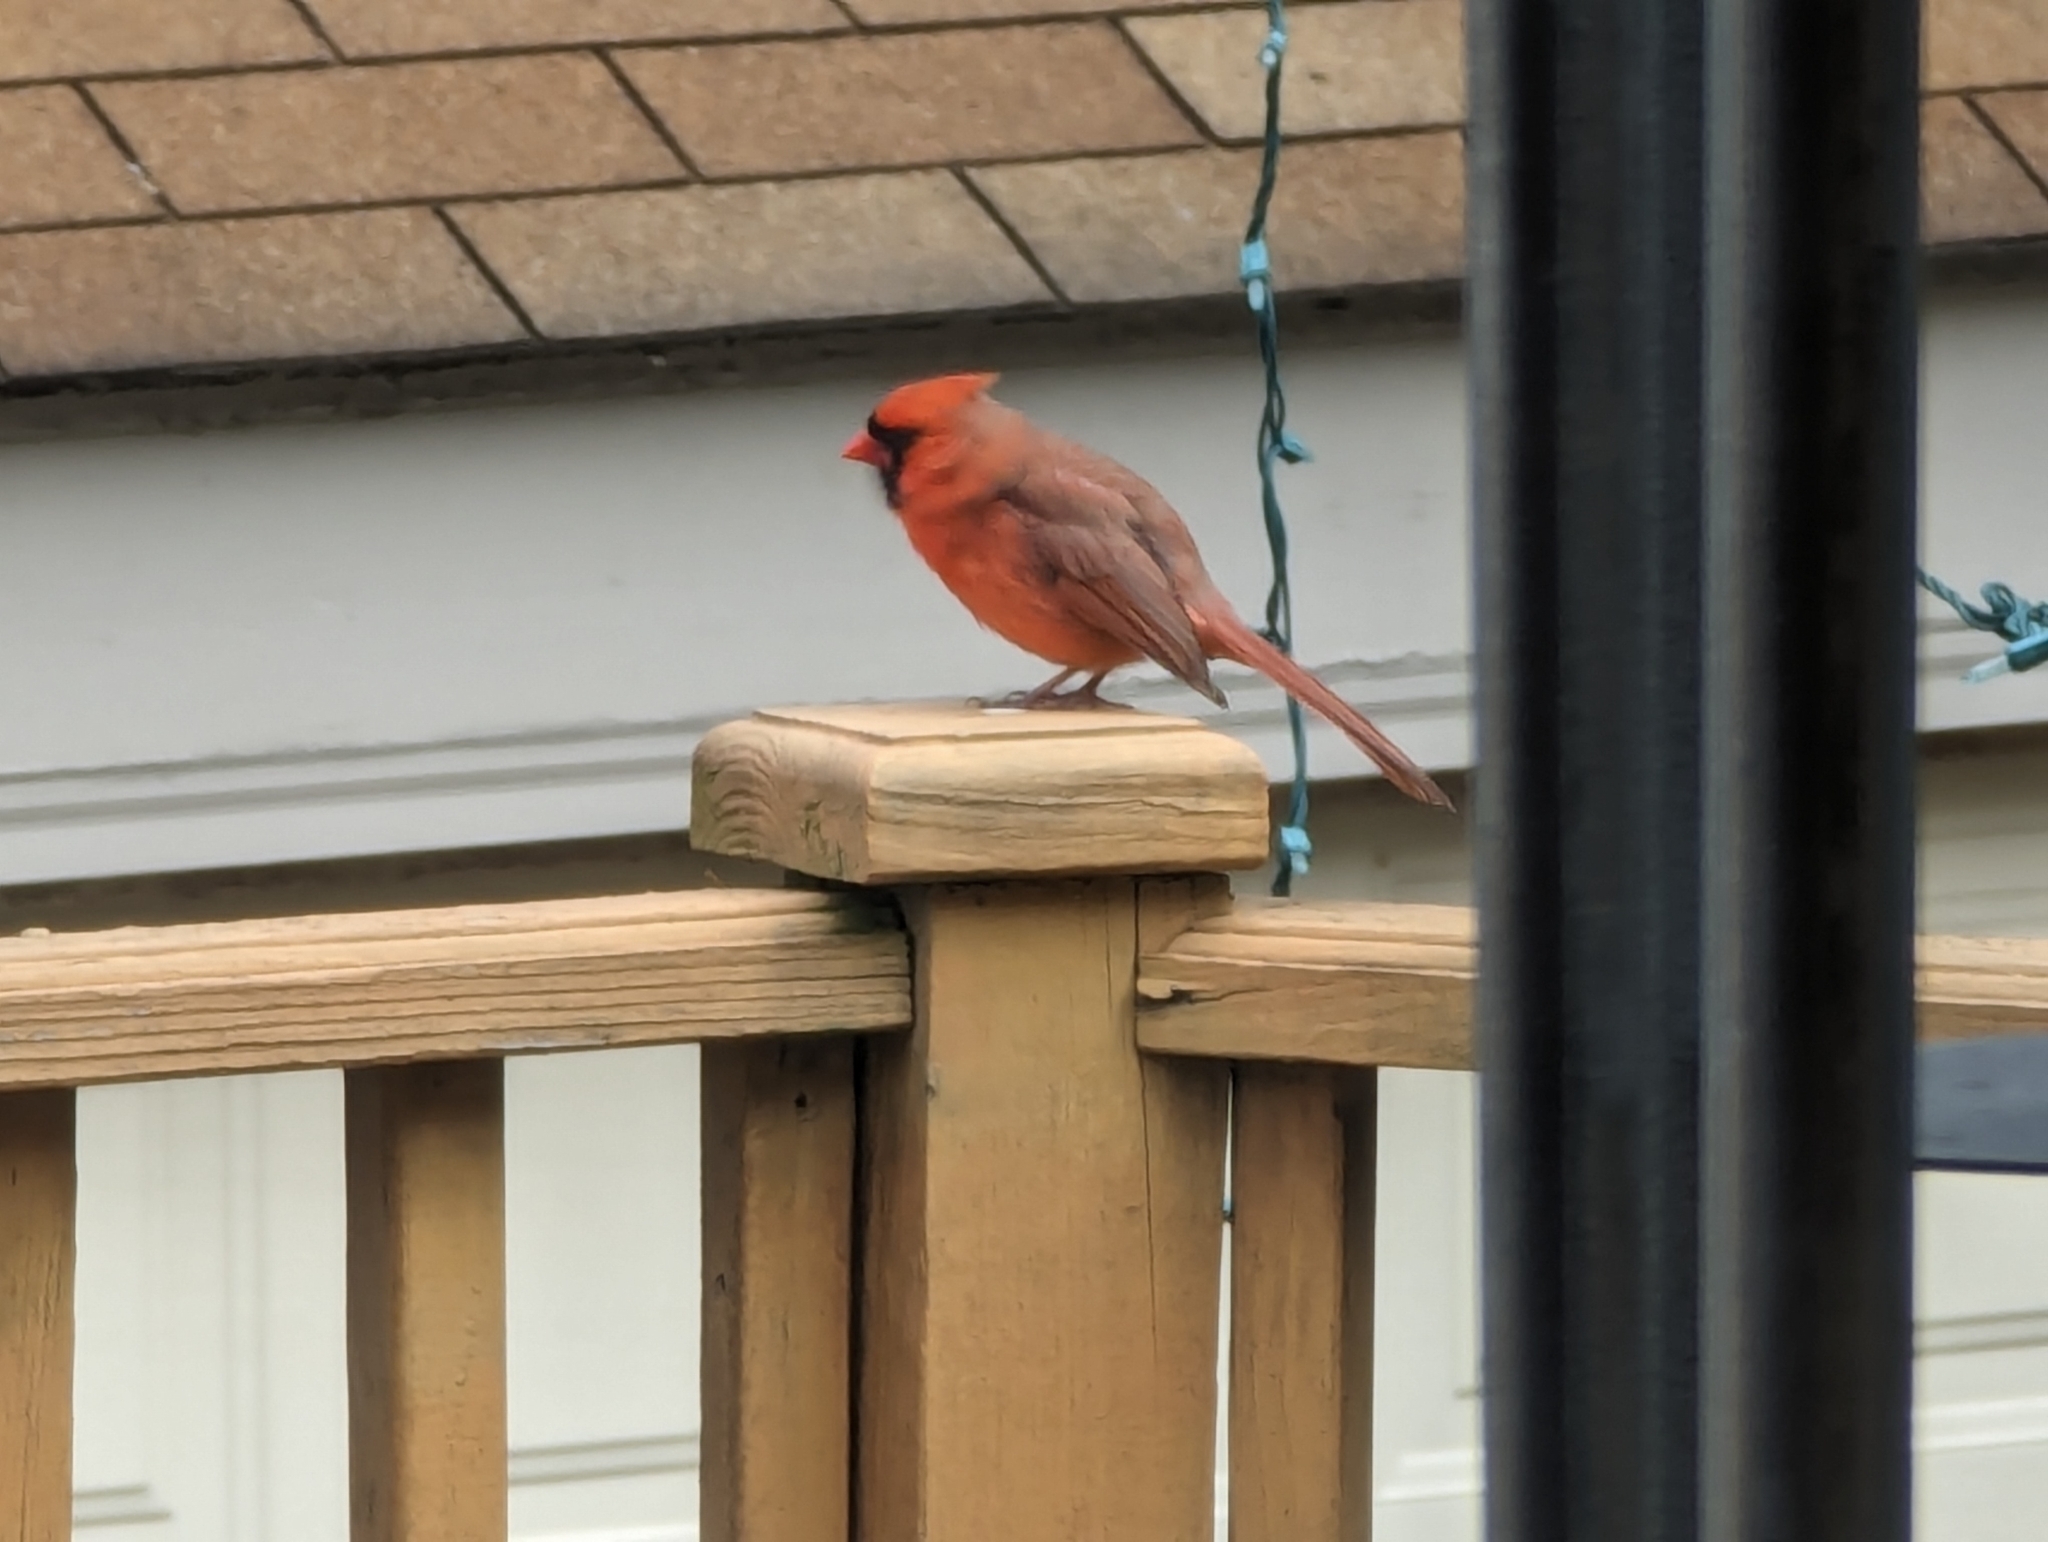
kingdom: Animalia
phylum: Chordata
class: Aves
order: Passeriformes
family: Cardinalidae
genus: Cardinalis
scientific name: Cardinalis cardinalis
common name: Northern cardinal
